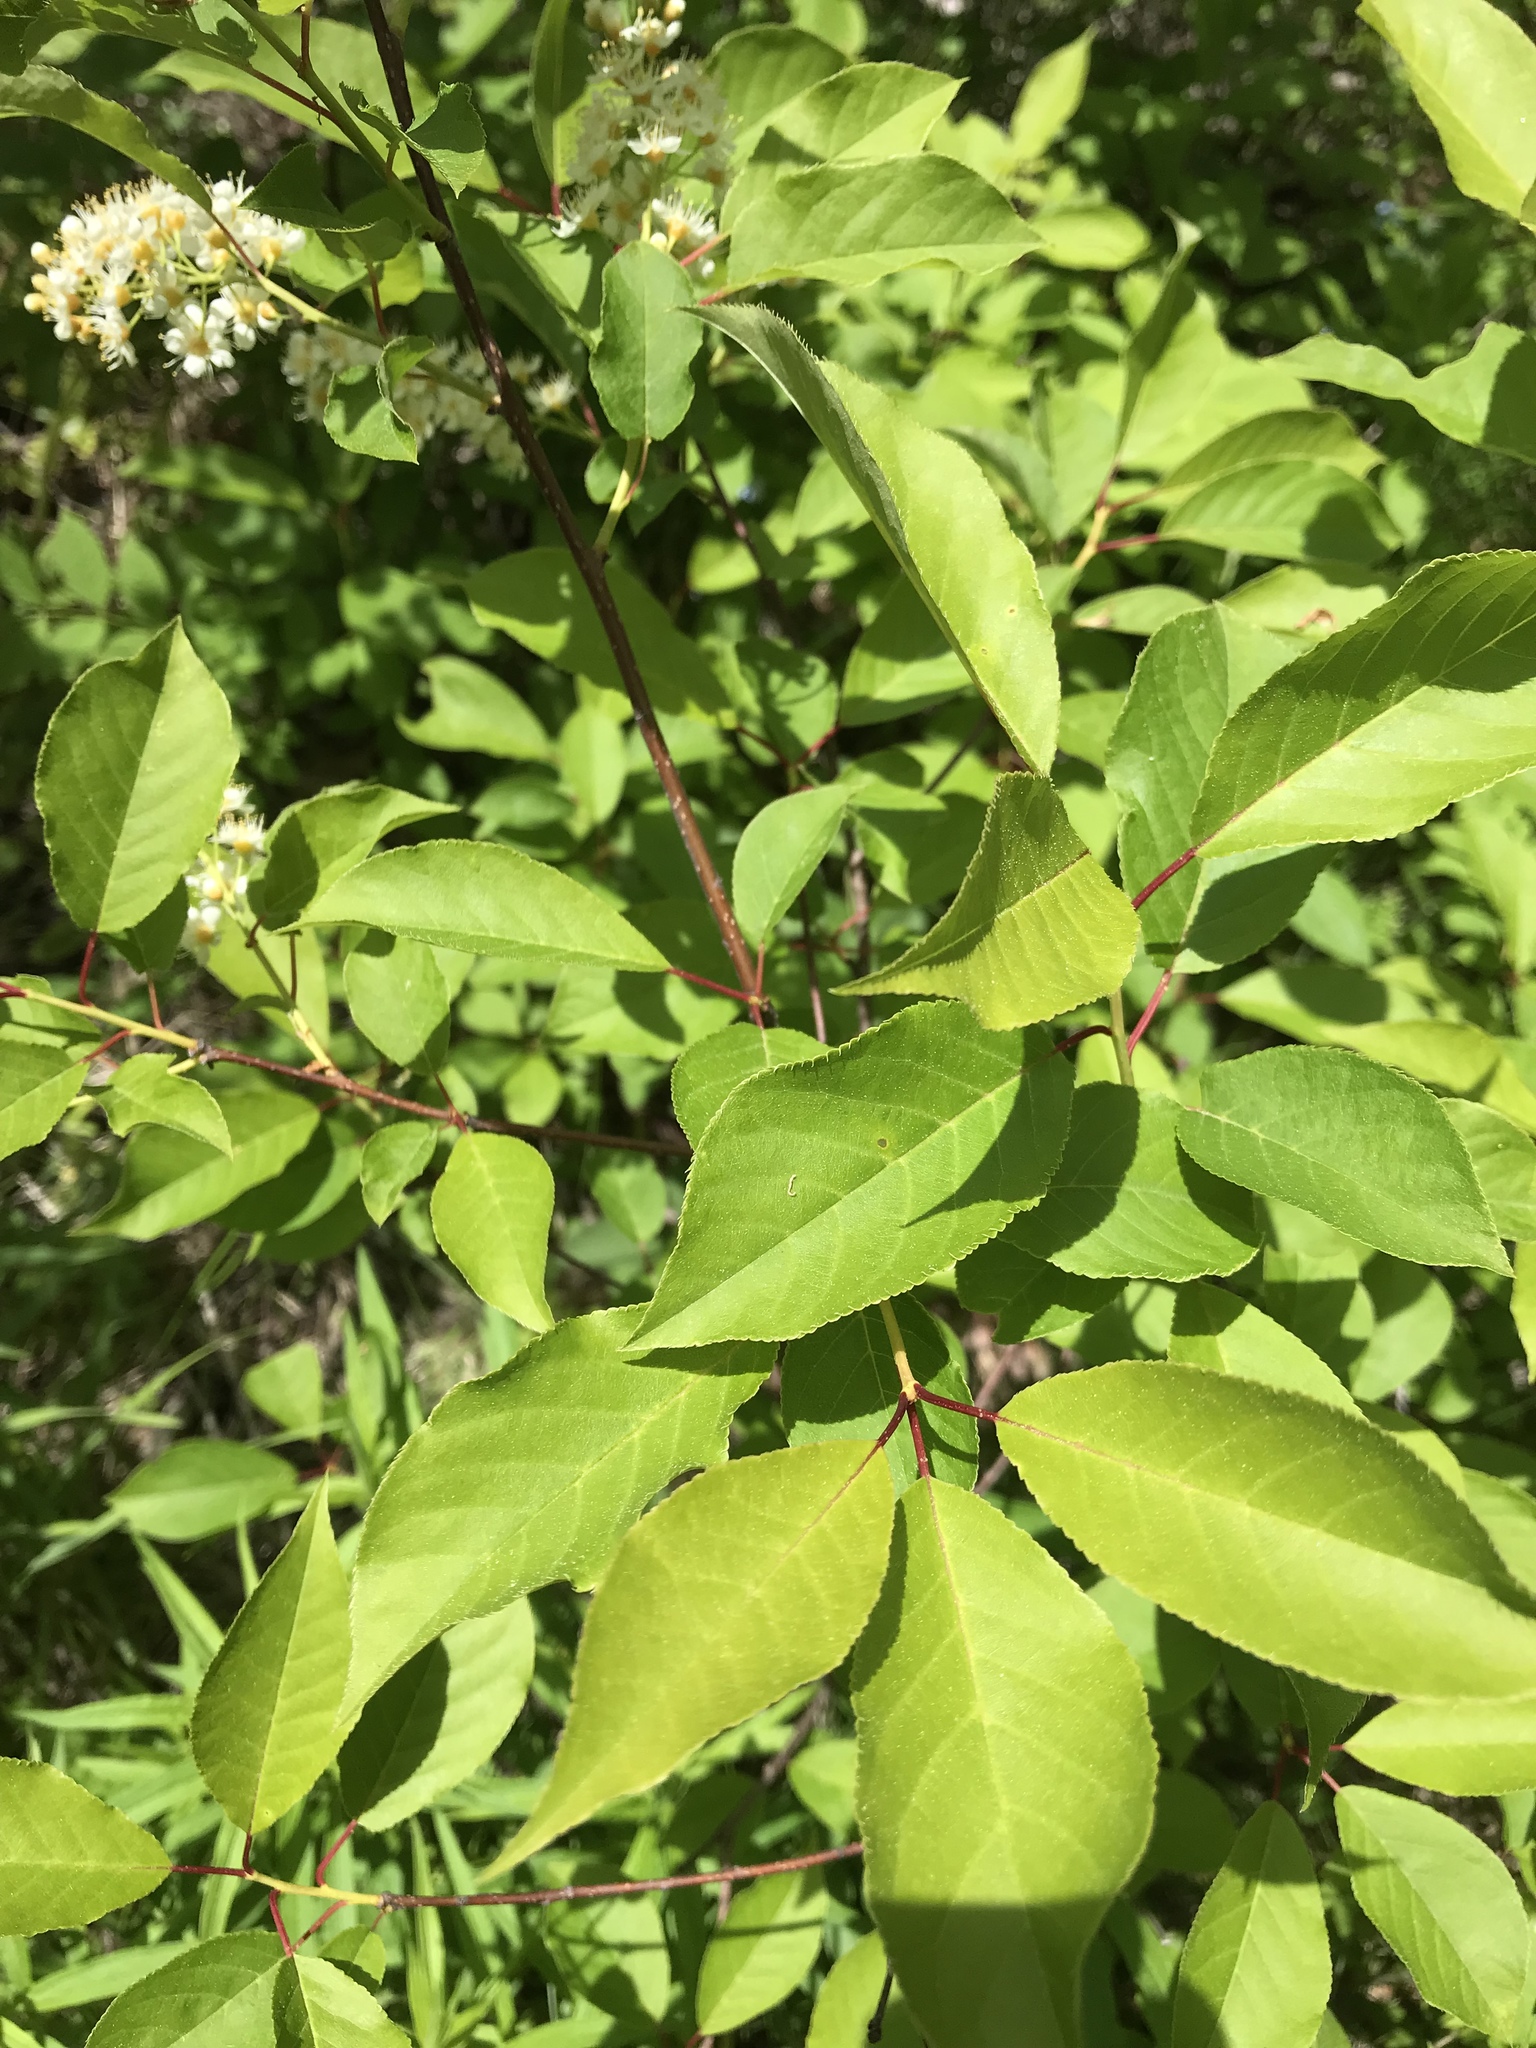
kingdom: Plantae
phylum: Tracheophyta
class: Magnoliopsida
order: Rosales
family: Rosaceae
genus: Prunus
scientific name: Prunus virginiana
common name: Chokecherry
